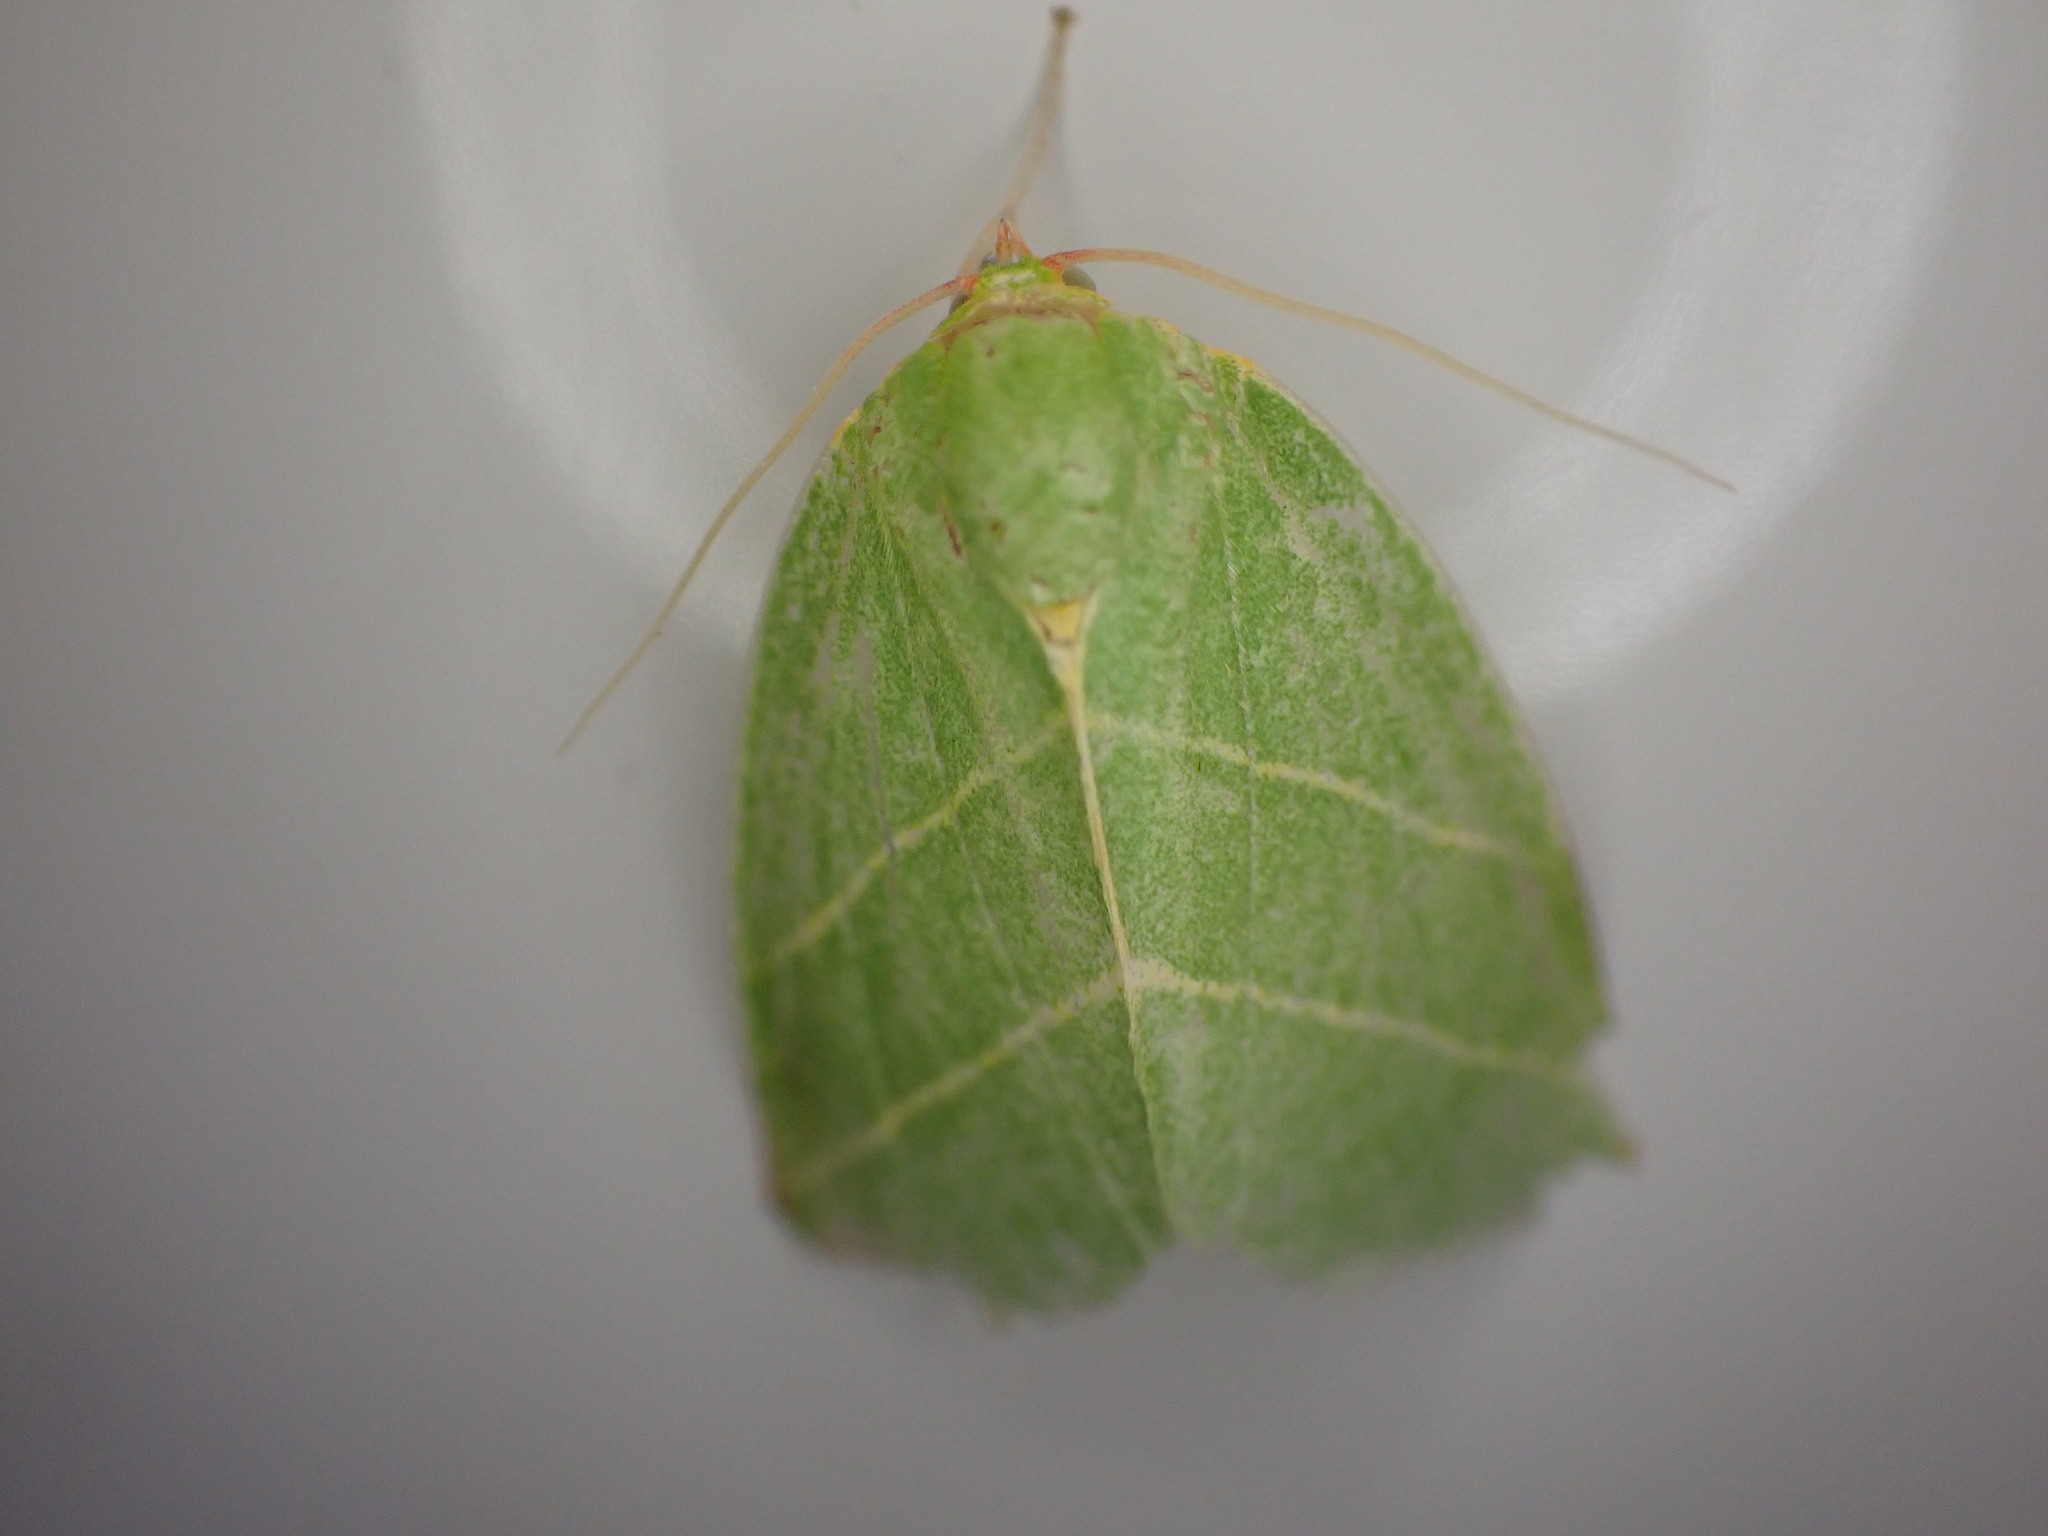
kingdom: Animalia
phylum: Arthropoda
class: Insecta
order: Lepidoptera
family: Nolidae
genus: Bena
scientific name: Bena bicolorana
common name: Scarce silver-lines
